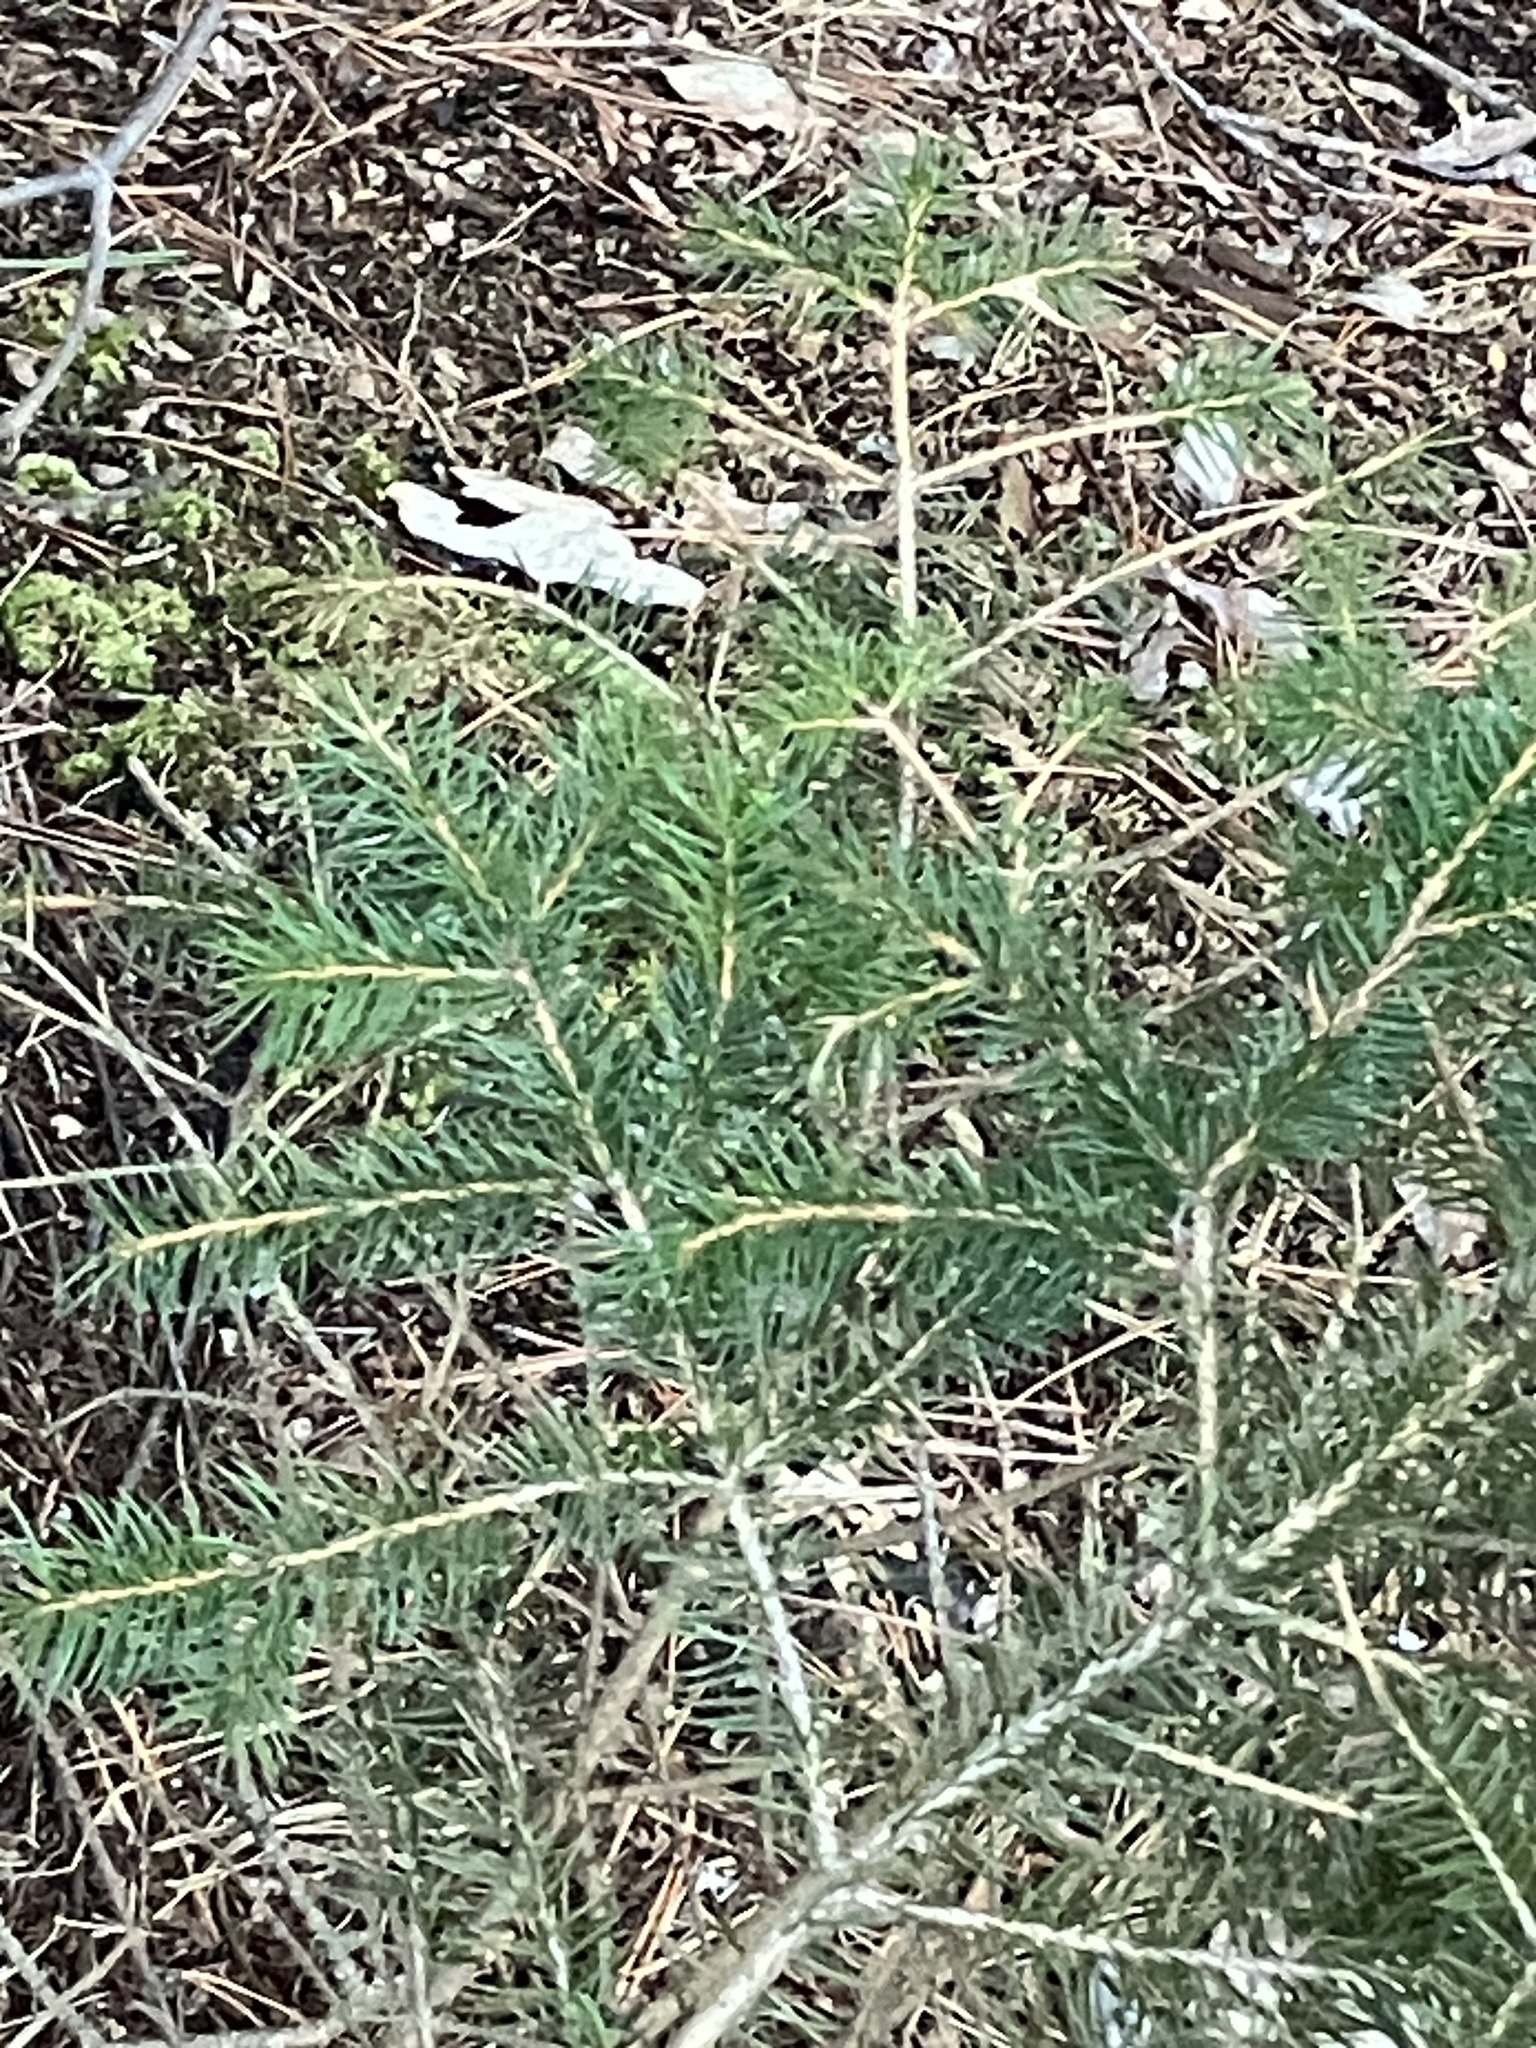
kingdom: Plantae
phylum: Tracheophyta
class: Pinopsida
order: Pinales
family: Pinaceae
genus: Picea
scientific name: Picea rubens
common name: Red spruce
